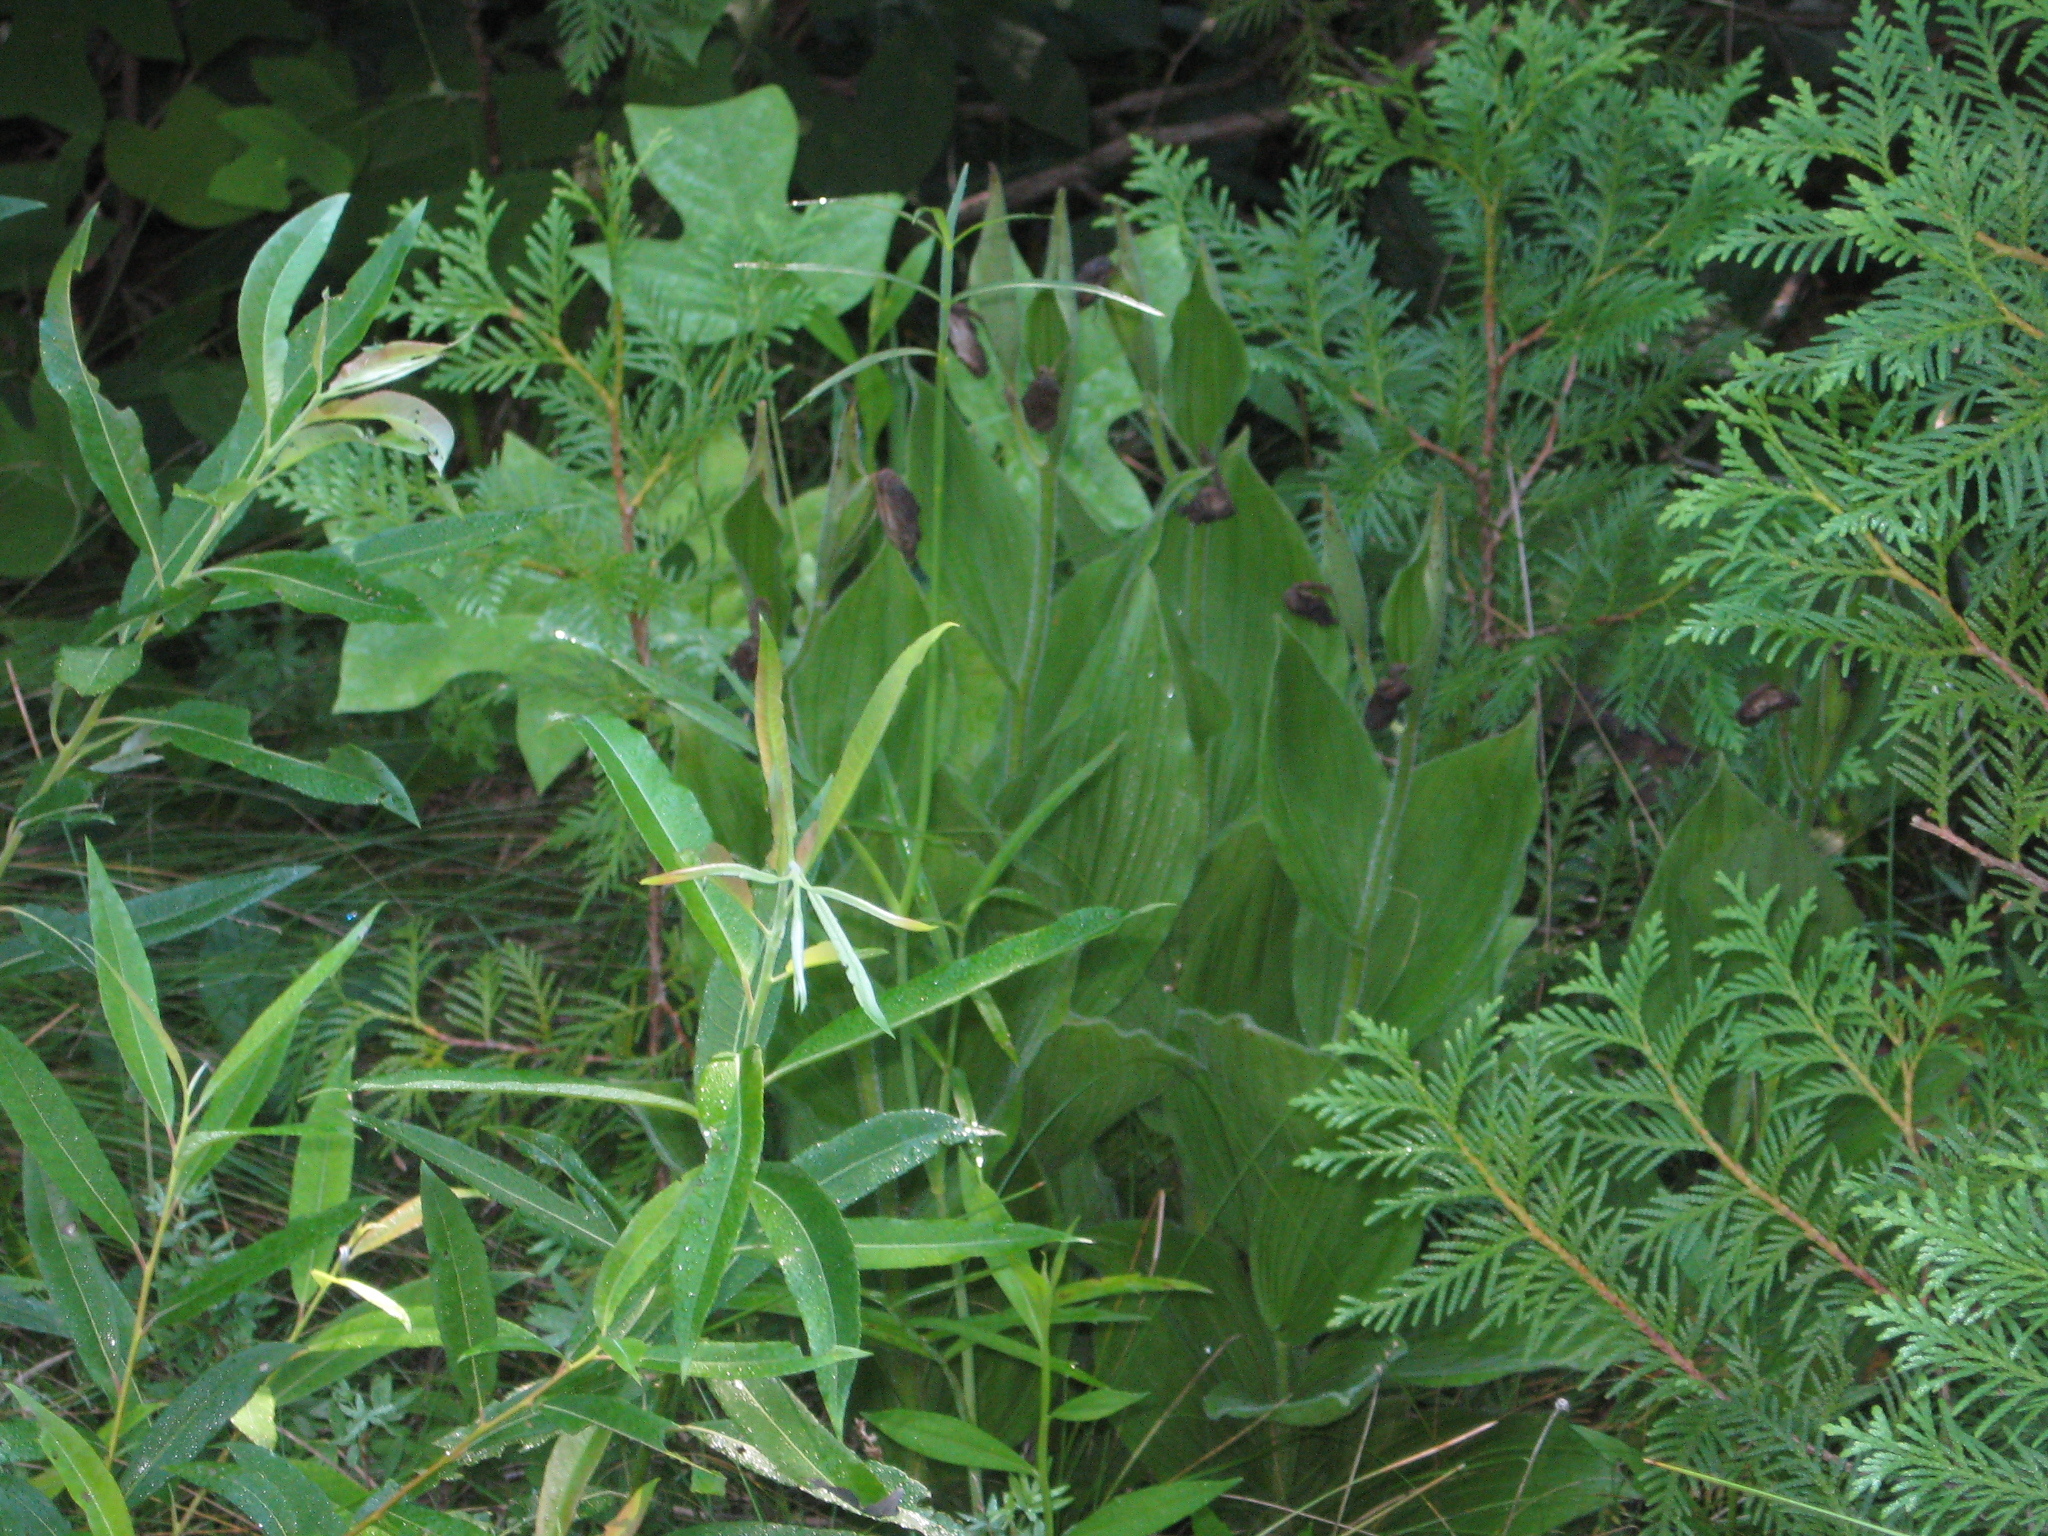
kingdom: Plantae
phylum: Tracheophyta
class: Liliopsida
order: Asparagales
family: Orchidaceae
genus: Cypripedium
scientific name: Cypripedium reginae
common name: Queen lady's-slipper
